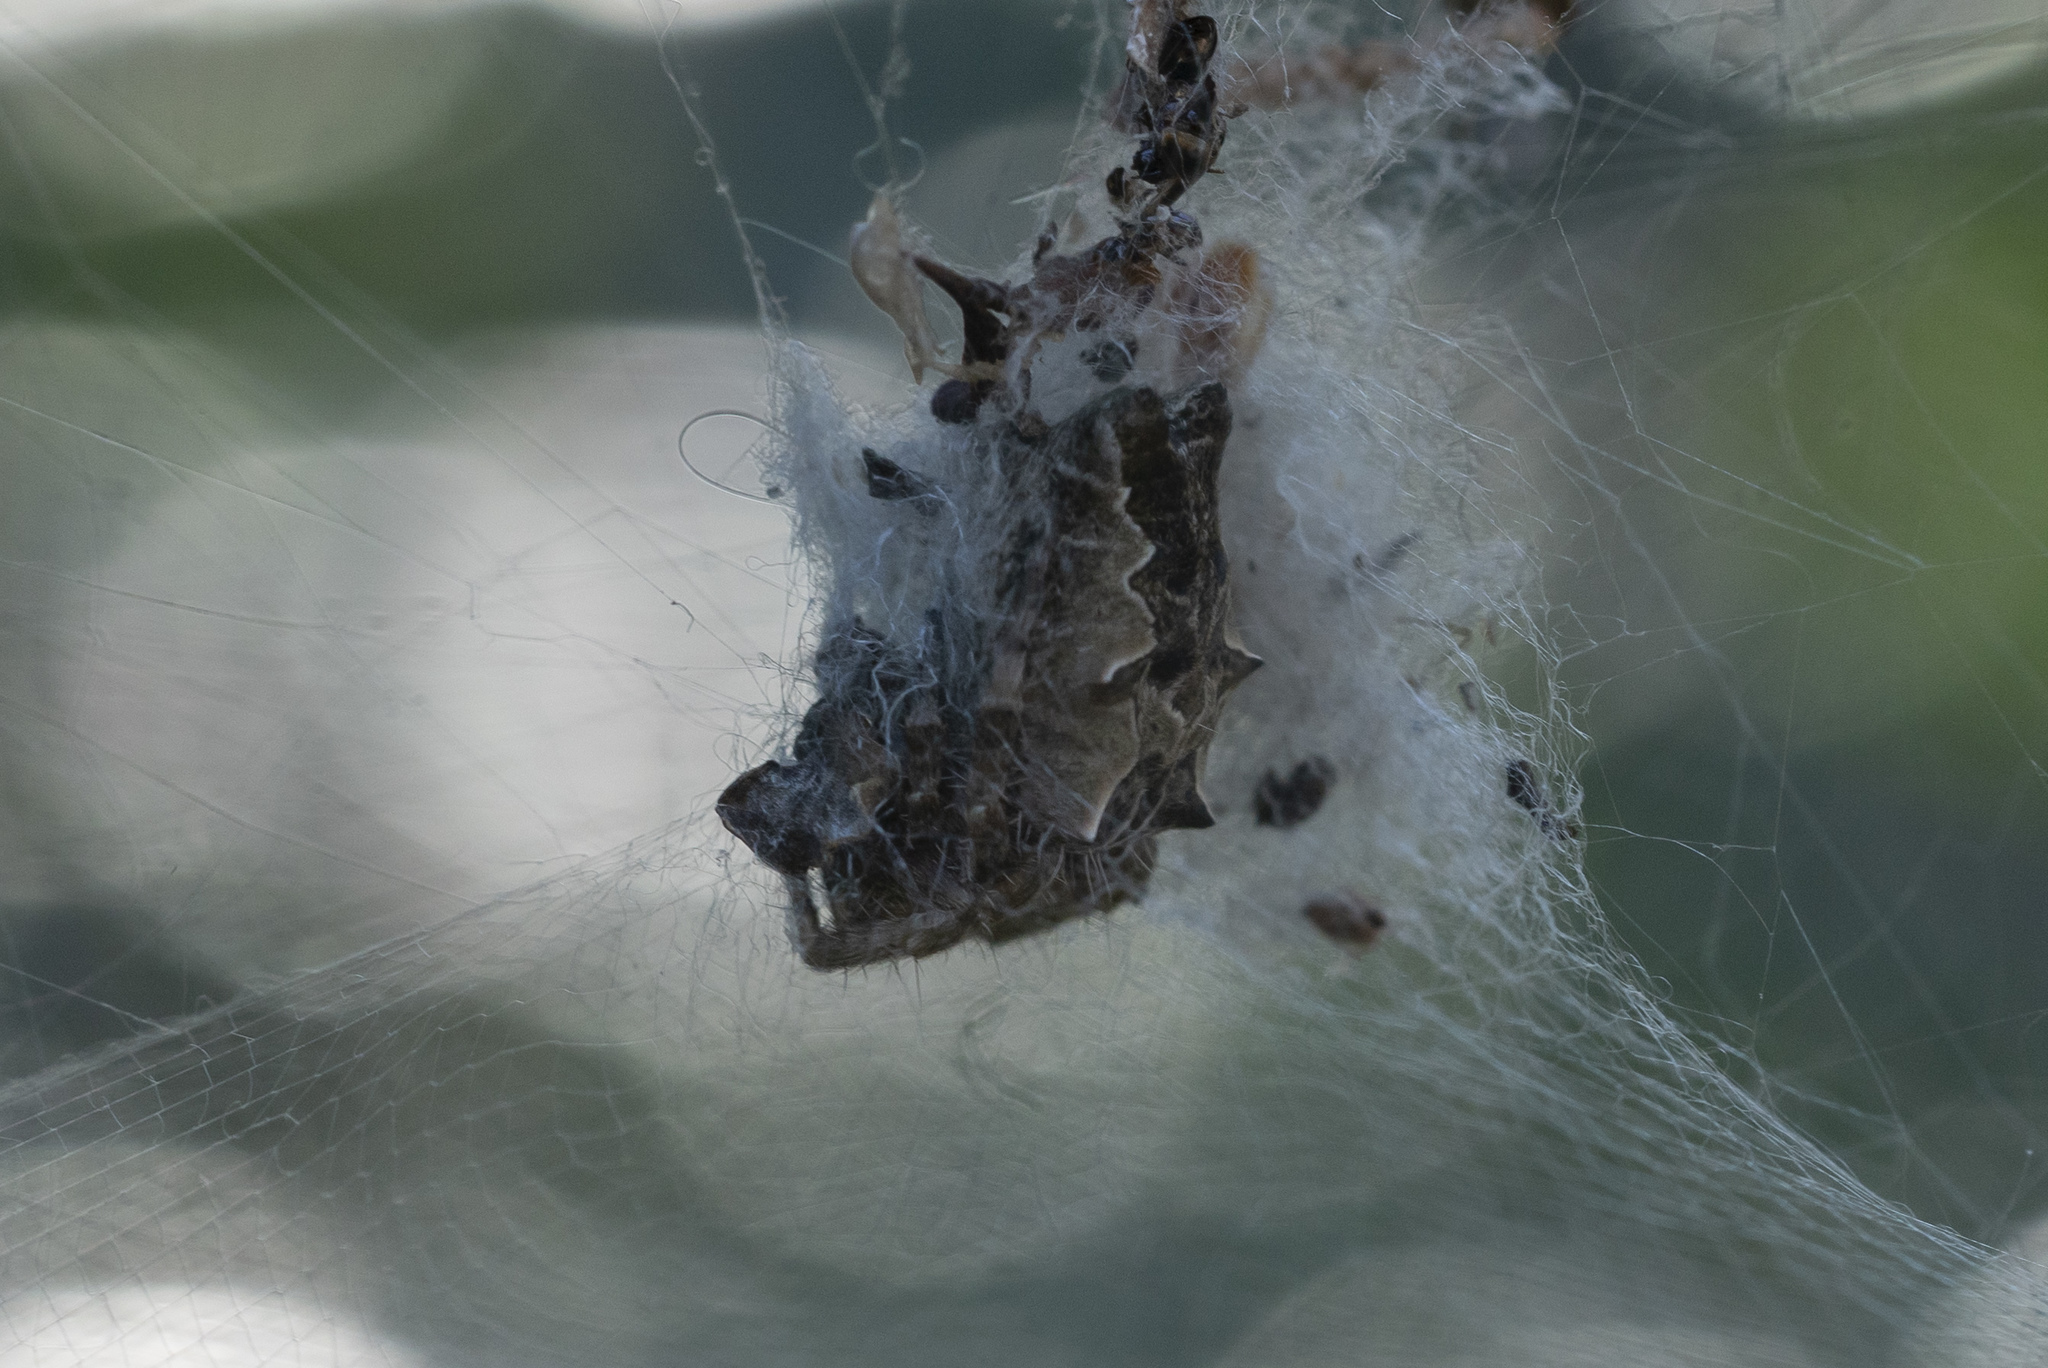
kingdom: Animalia
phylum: Arthropoda
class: Arachnida
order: Araneae
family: Araneidae
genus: Cyrtophora
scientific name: Cyrtophora citricola
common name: Orb weavers
